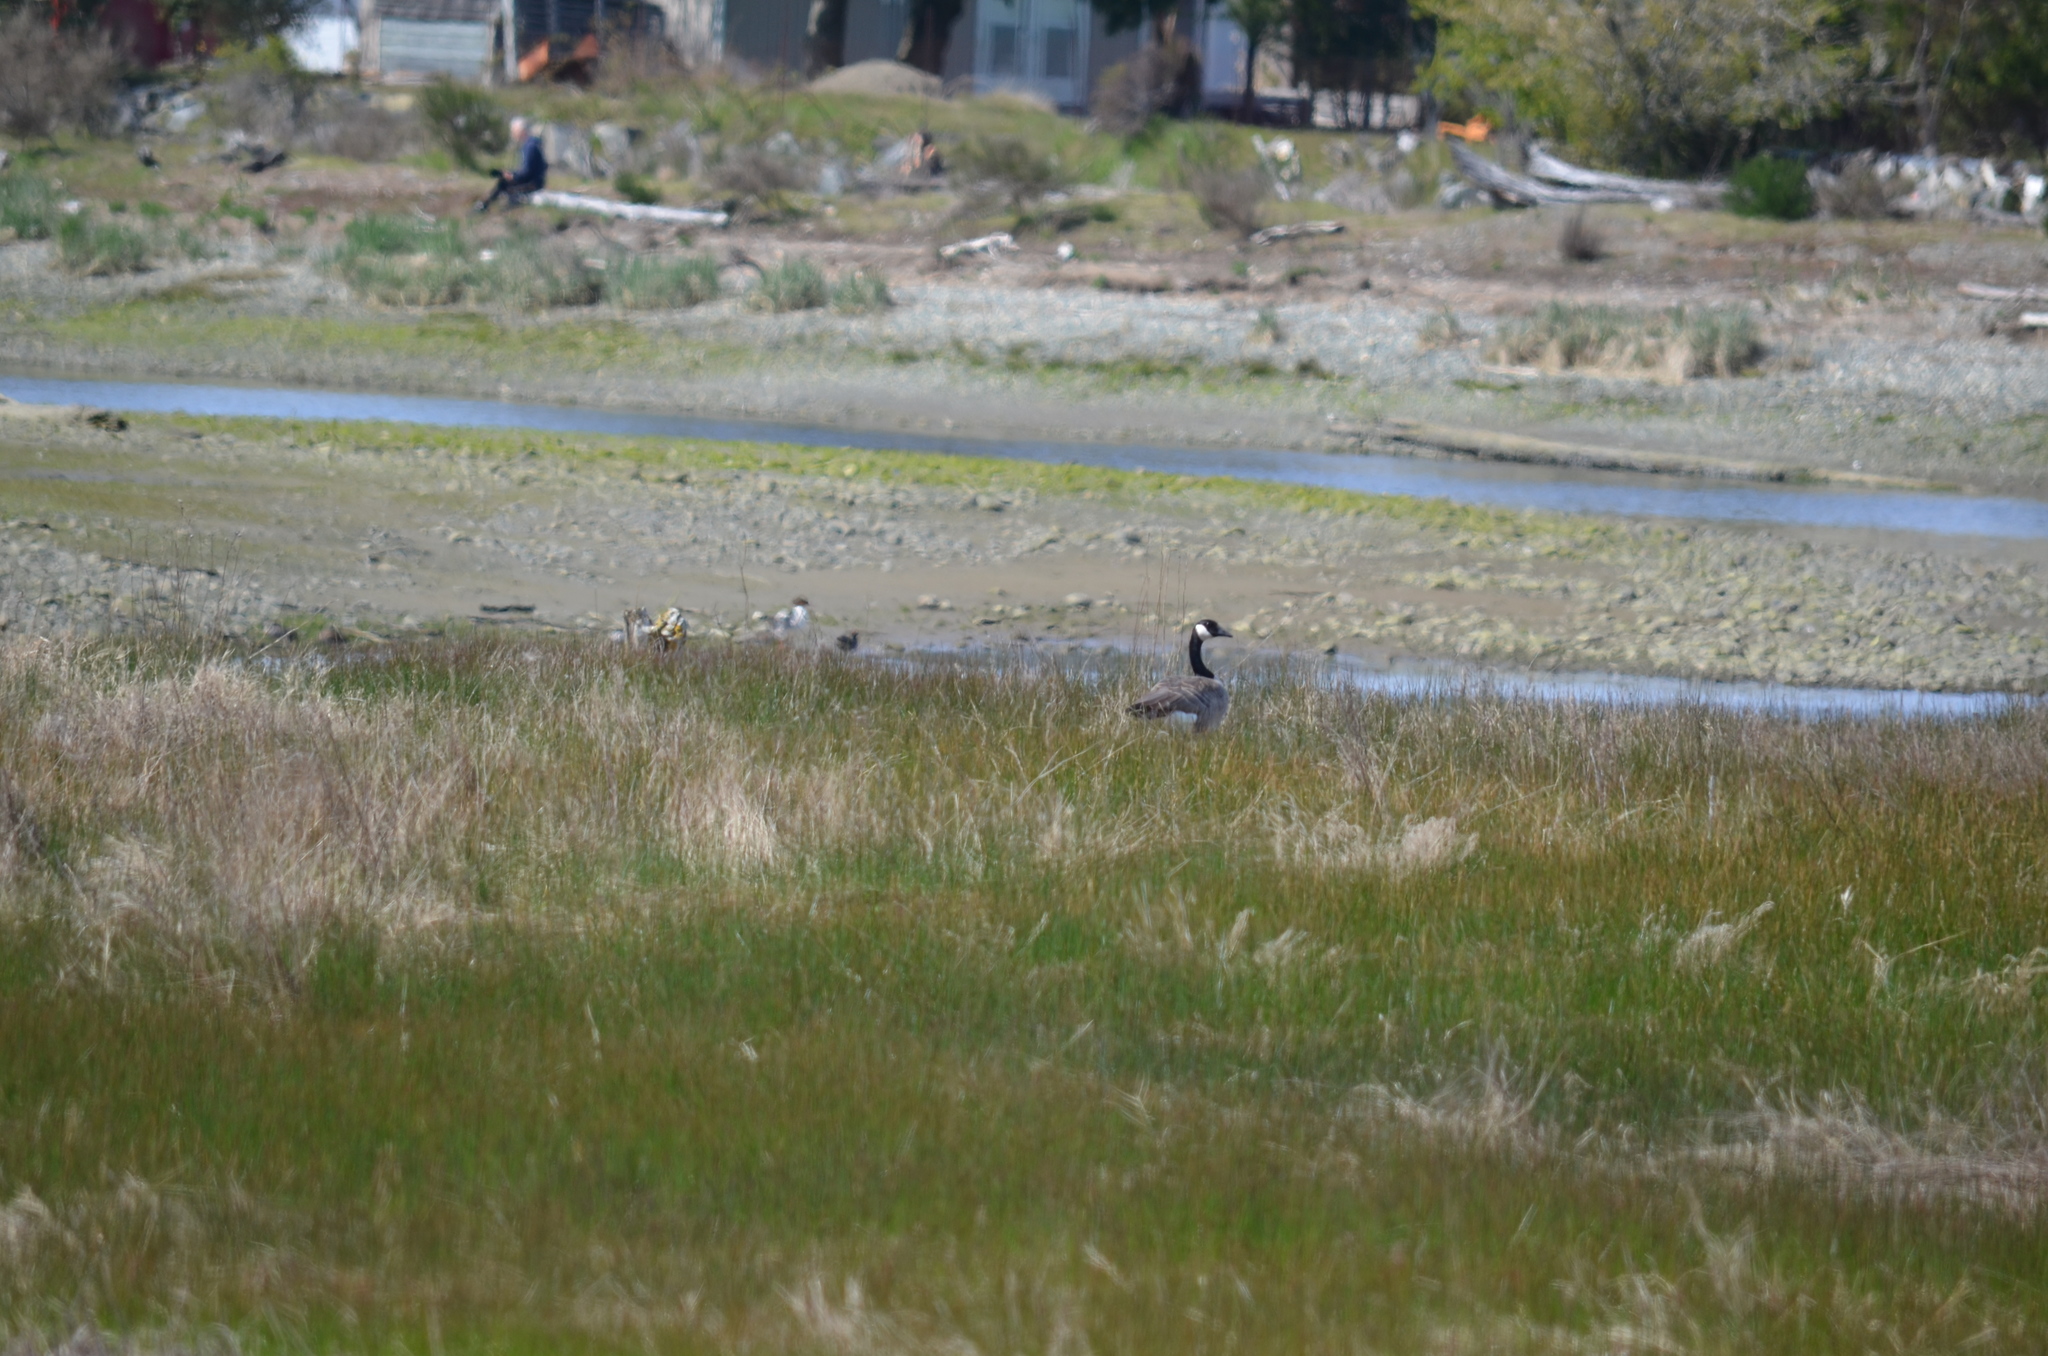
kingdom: Animalia
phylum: Chordata
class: Aves
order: Anseriformes
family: Anatidae
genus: Branta
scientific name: Branta canadensis
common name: Canada goose
